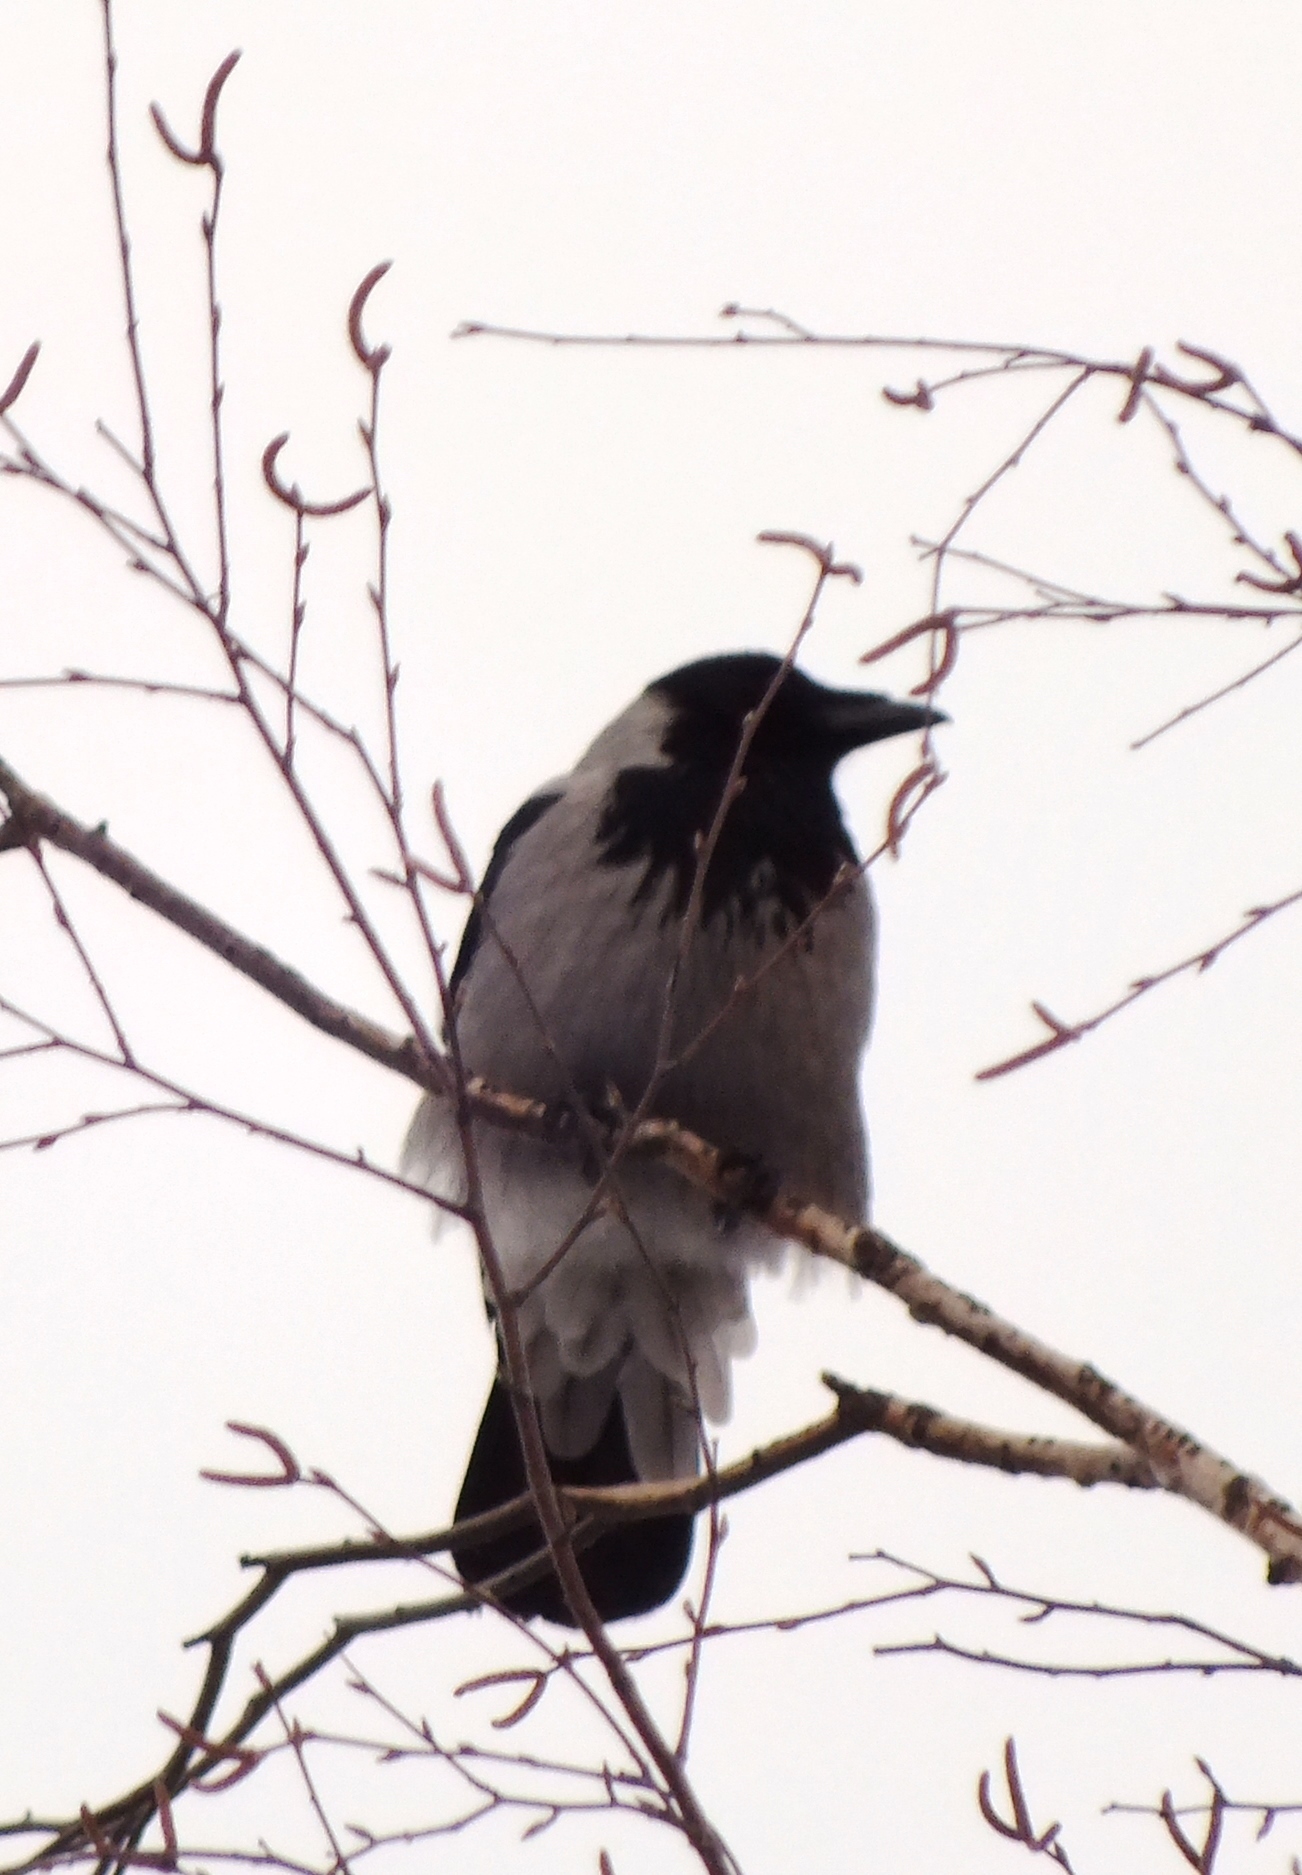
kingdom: Animalia
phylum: Chordata
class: Aves
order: Passeriformes
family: Corvidae
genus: Corvus
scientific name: Corvus cornix
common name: Hooded crow
